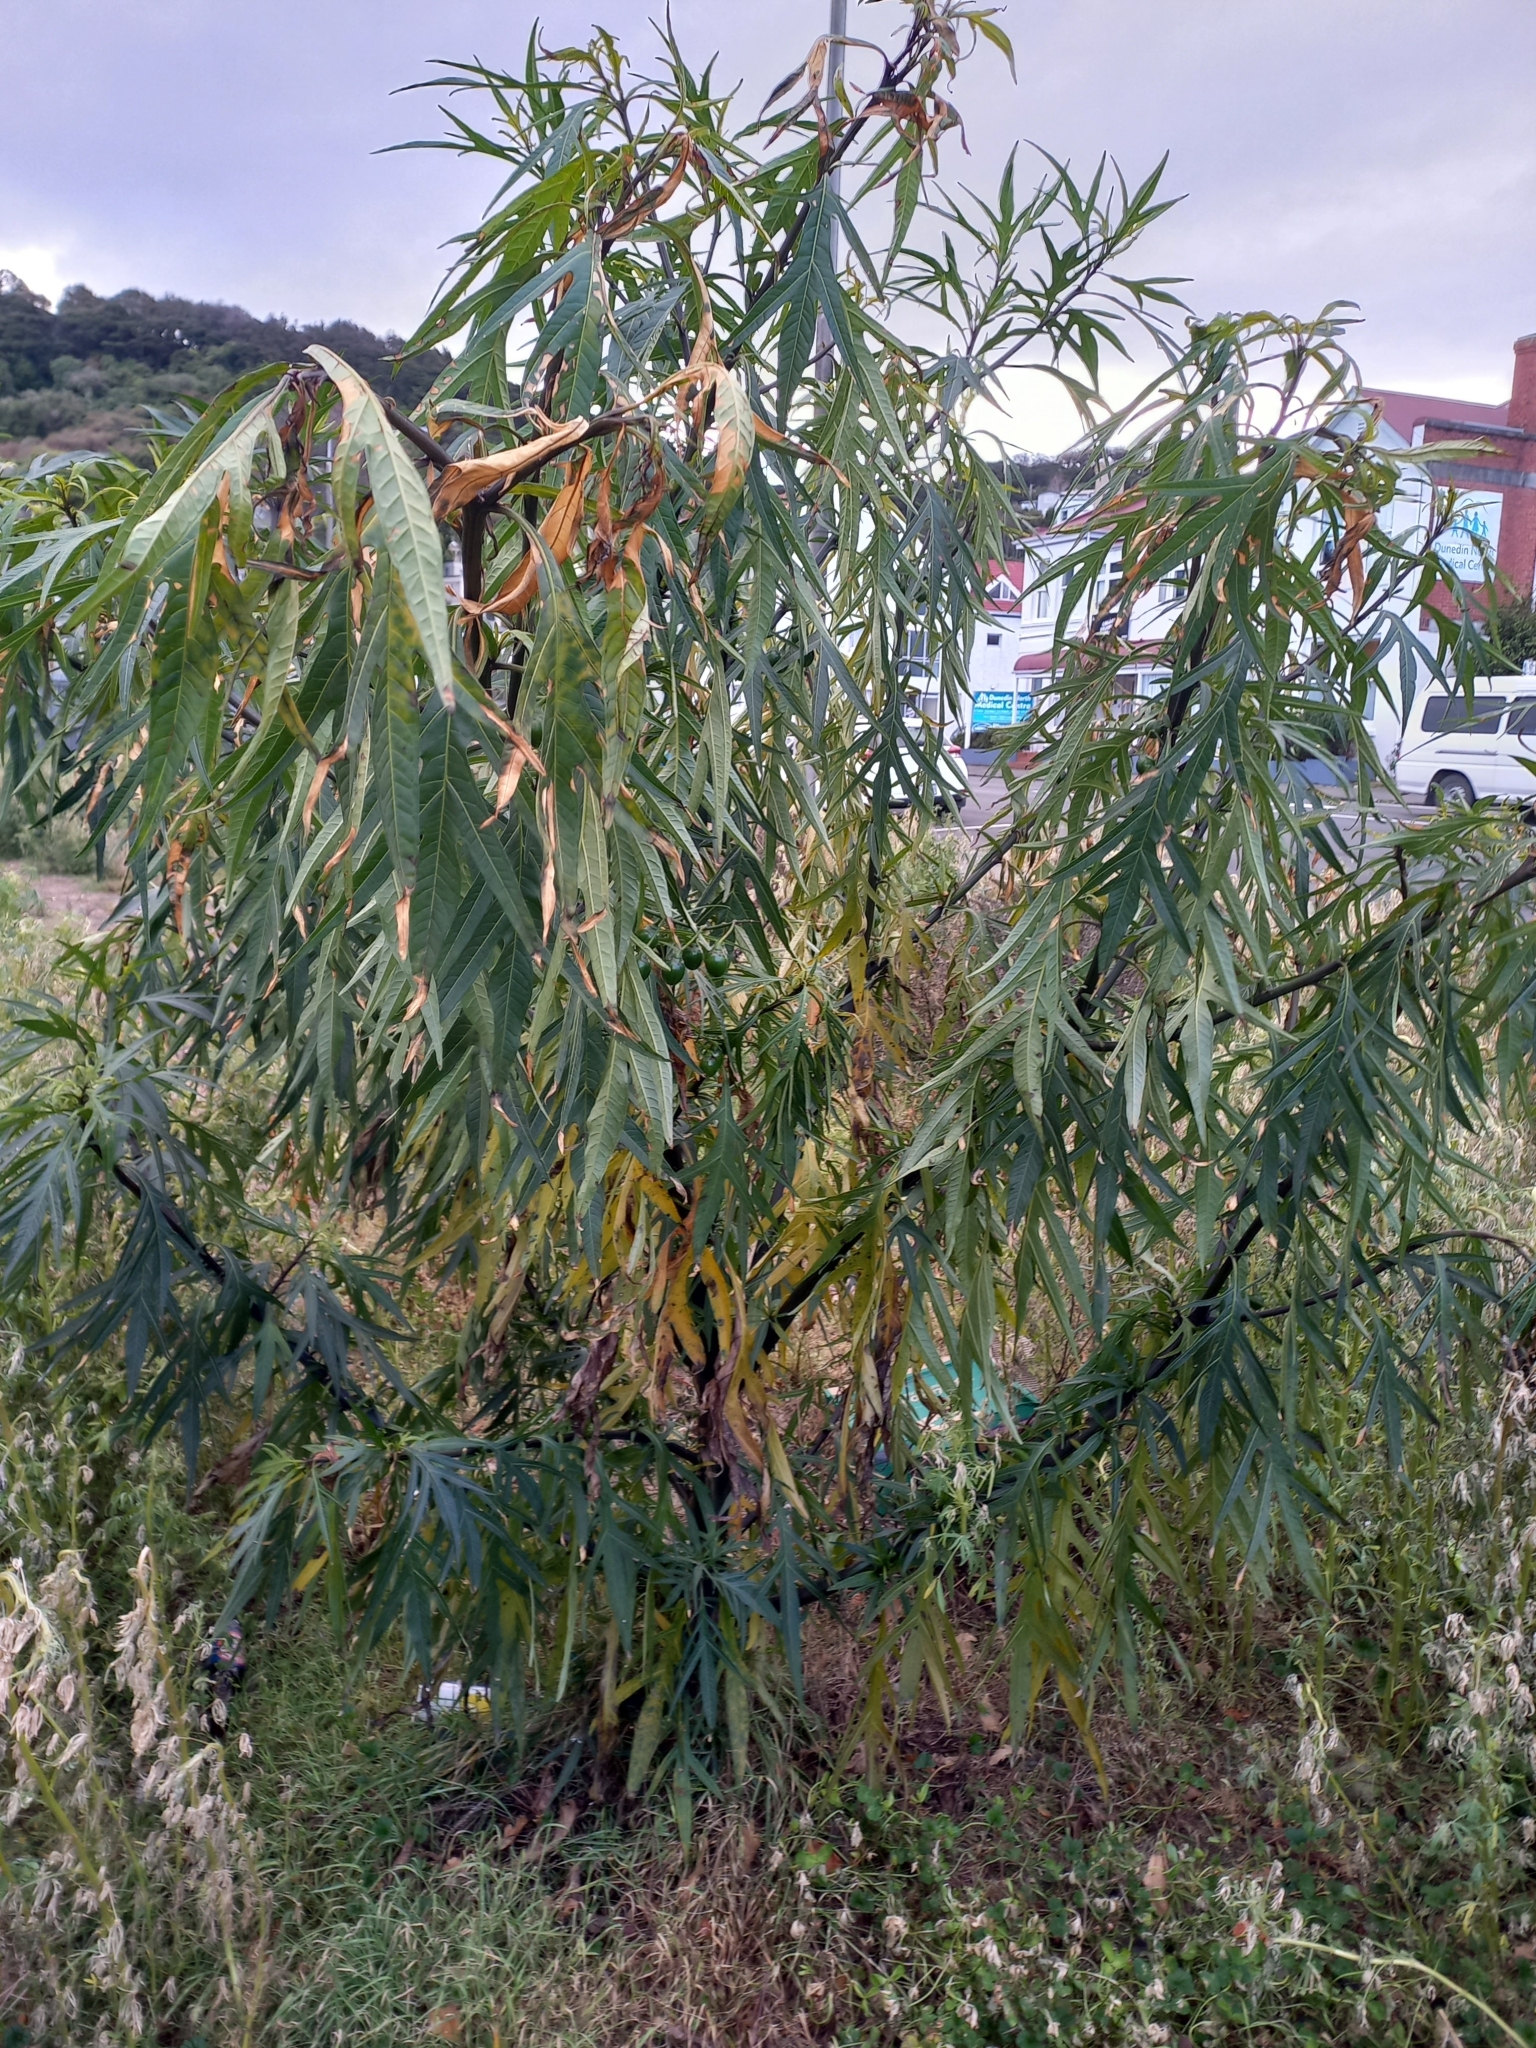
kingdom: Plantae
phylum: Tracheophyta
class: Magnoliopsida
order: Solanales
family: Solanaceae
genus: Solanum
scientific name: Solanum laciniatum
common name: Kangaroo-apple
